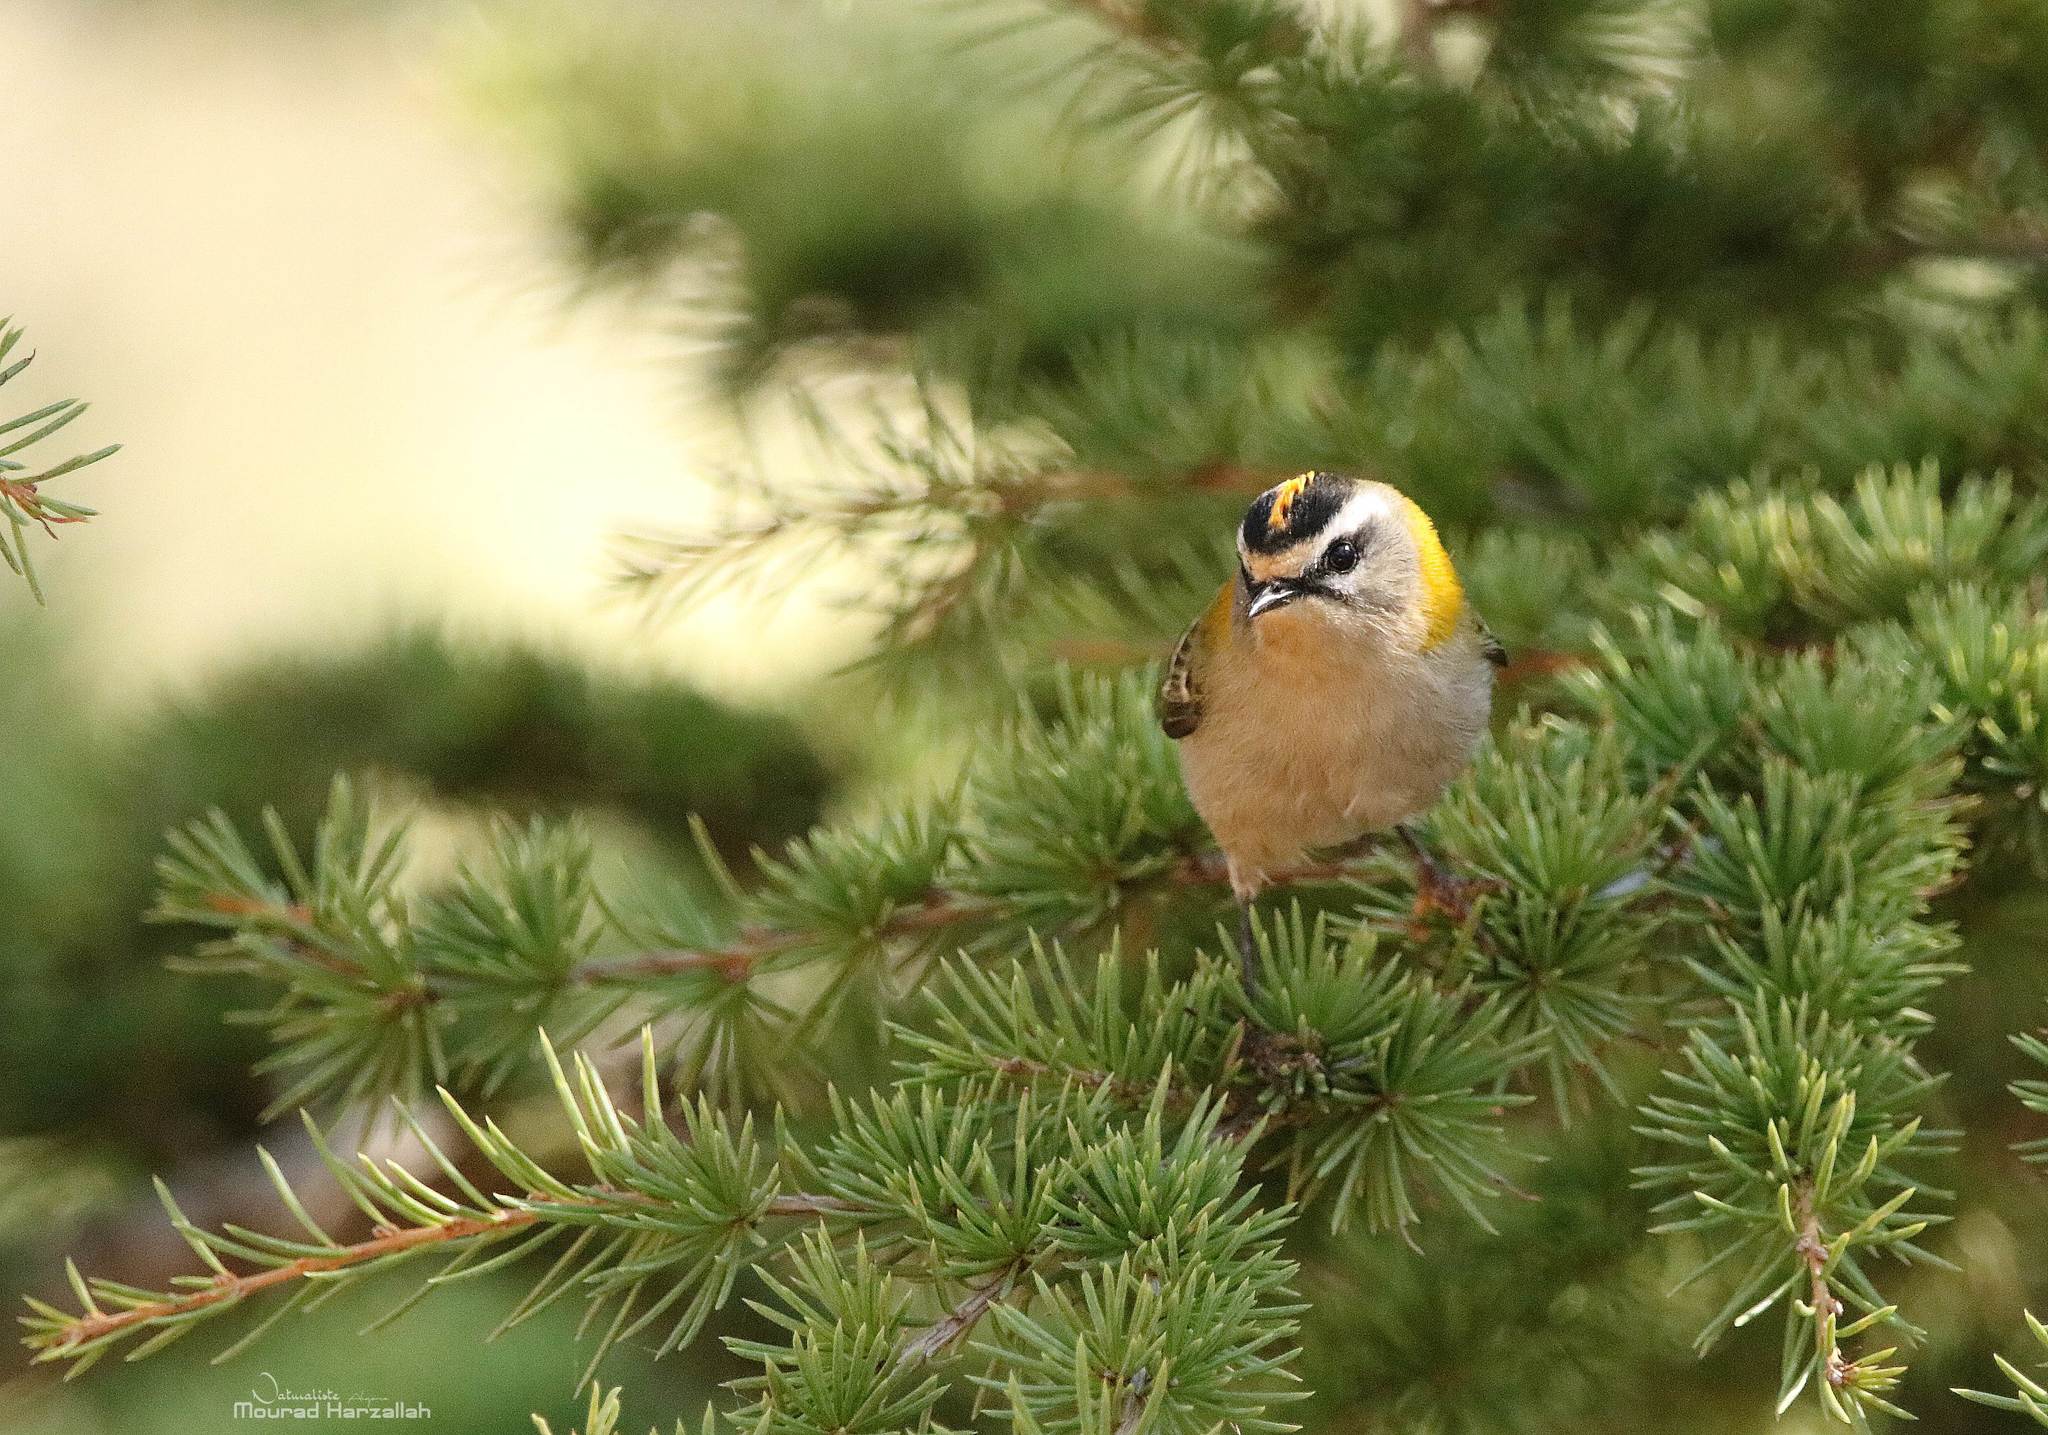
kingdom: Animalia
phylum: Chordata
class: Aves
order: Passeriformes
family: Regulidae
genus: Regulus
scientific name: Regulus ignicapilla
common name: Firecrest
